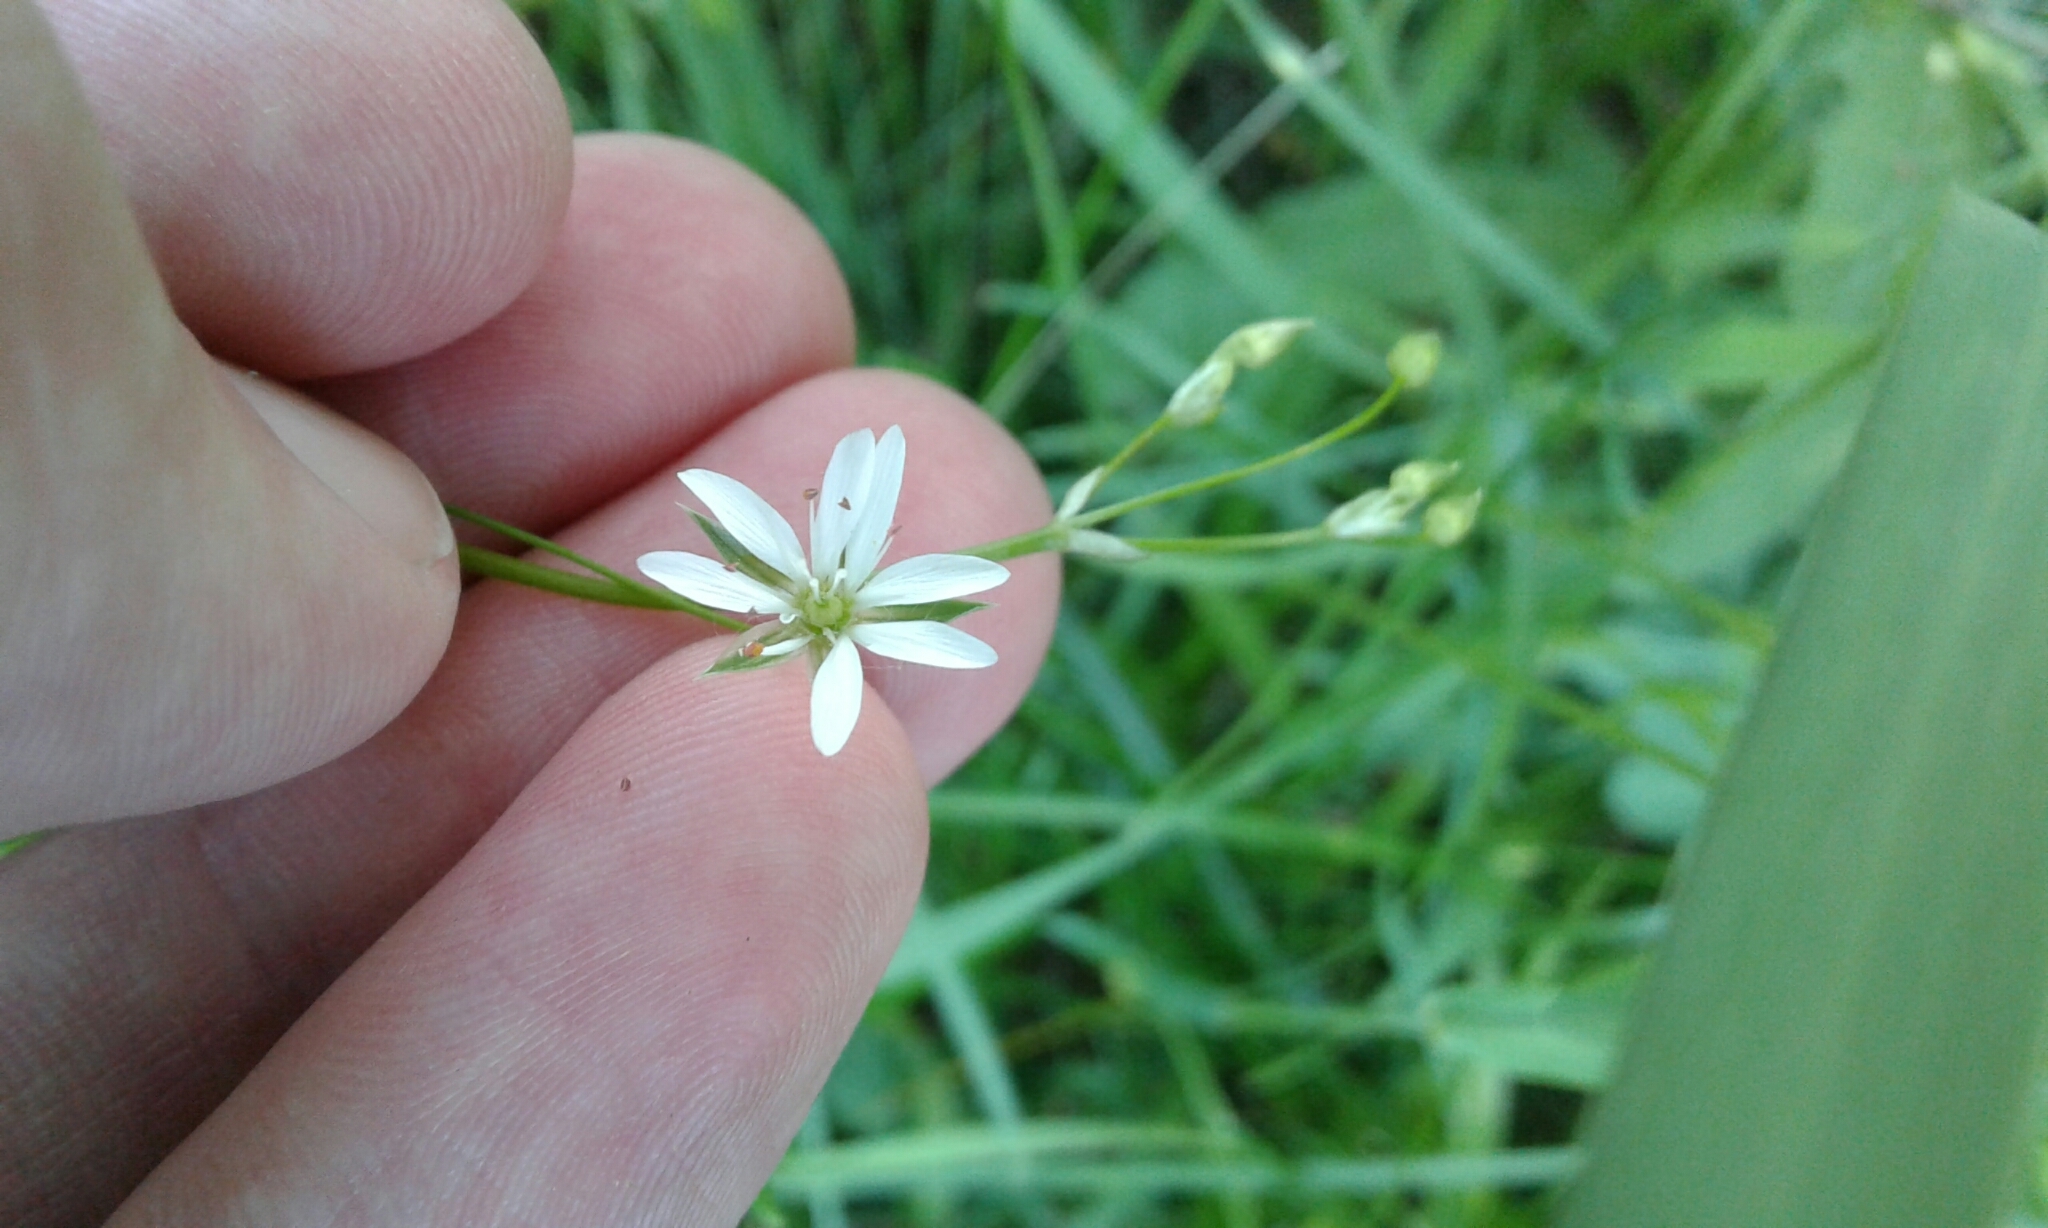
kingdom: Plantae
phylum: Tracheophyta
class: Magnoliopsida
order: Caryophyllales
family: Caryophyllaceae
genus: Stellaria
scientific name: Stellaria graminea
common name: Grass-like starwort
